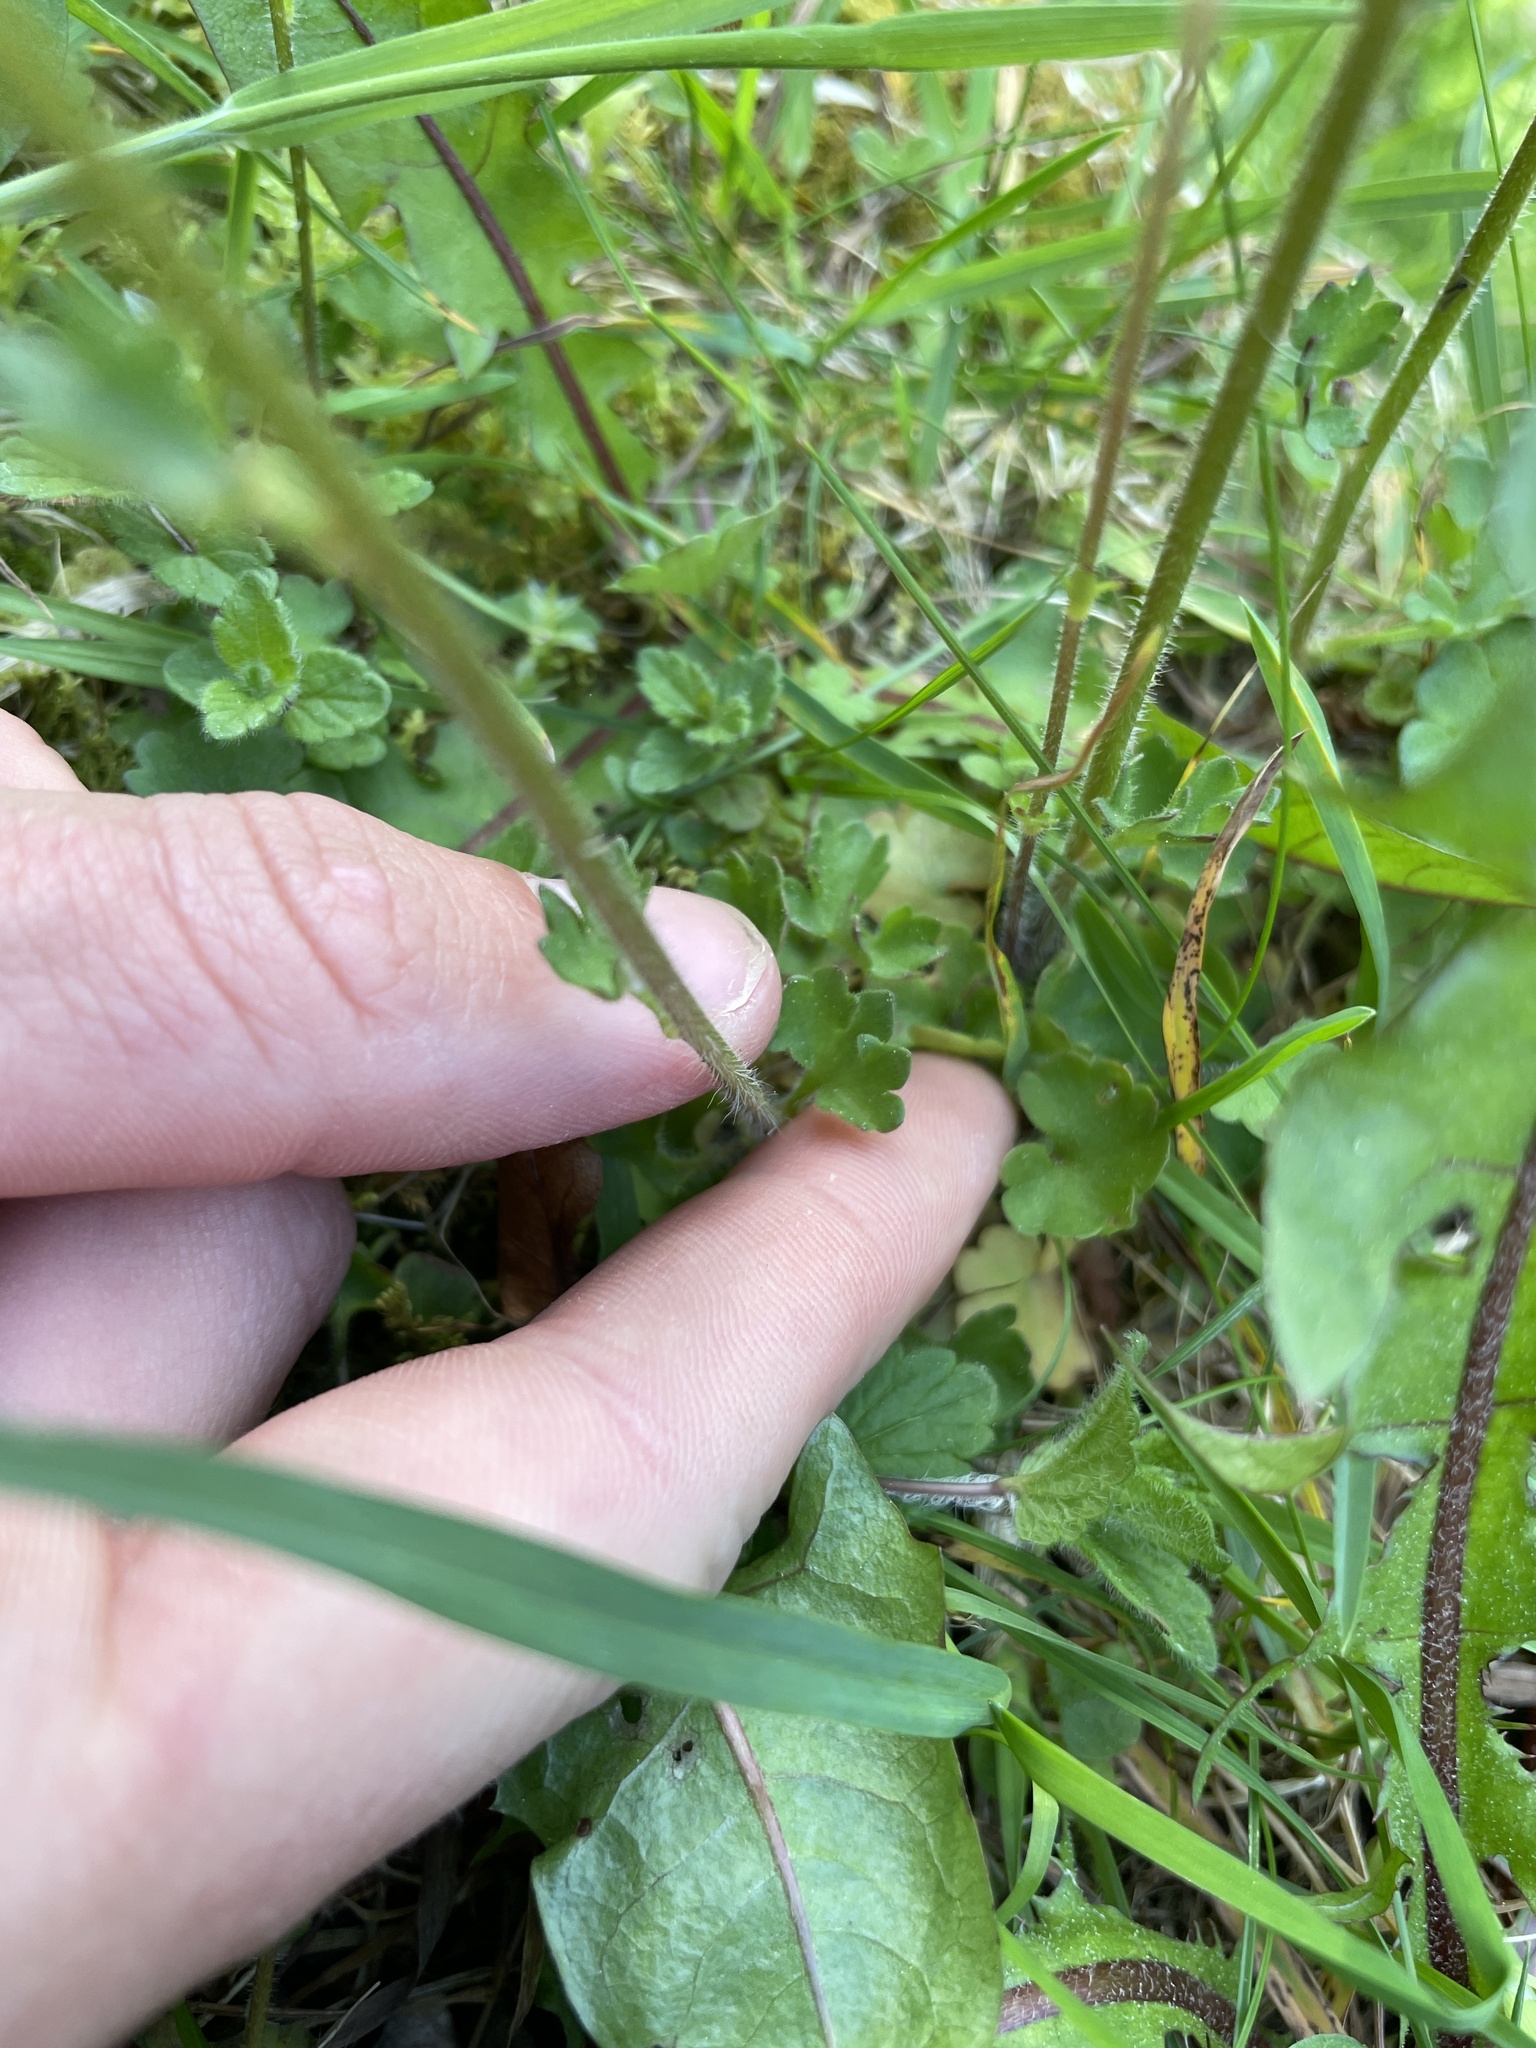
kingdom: Plantae
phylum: Tracheophyta
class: Magnoliopsida
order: Saxifragales
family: Saxifragaceae
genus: Saxifraga
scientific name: Saxifraga granulata
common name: Meadow saxifrage
